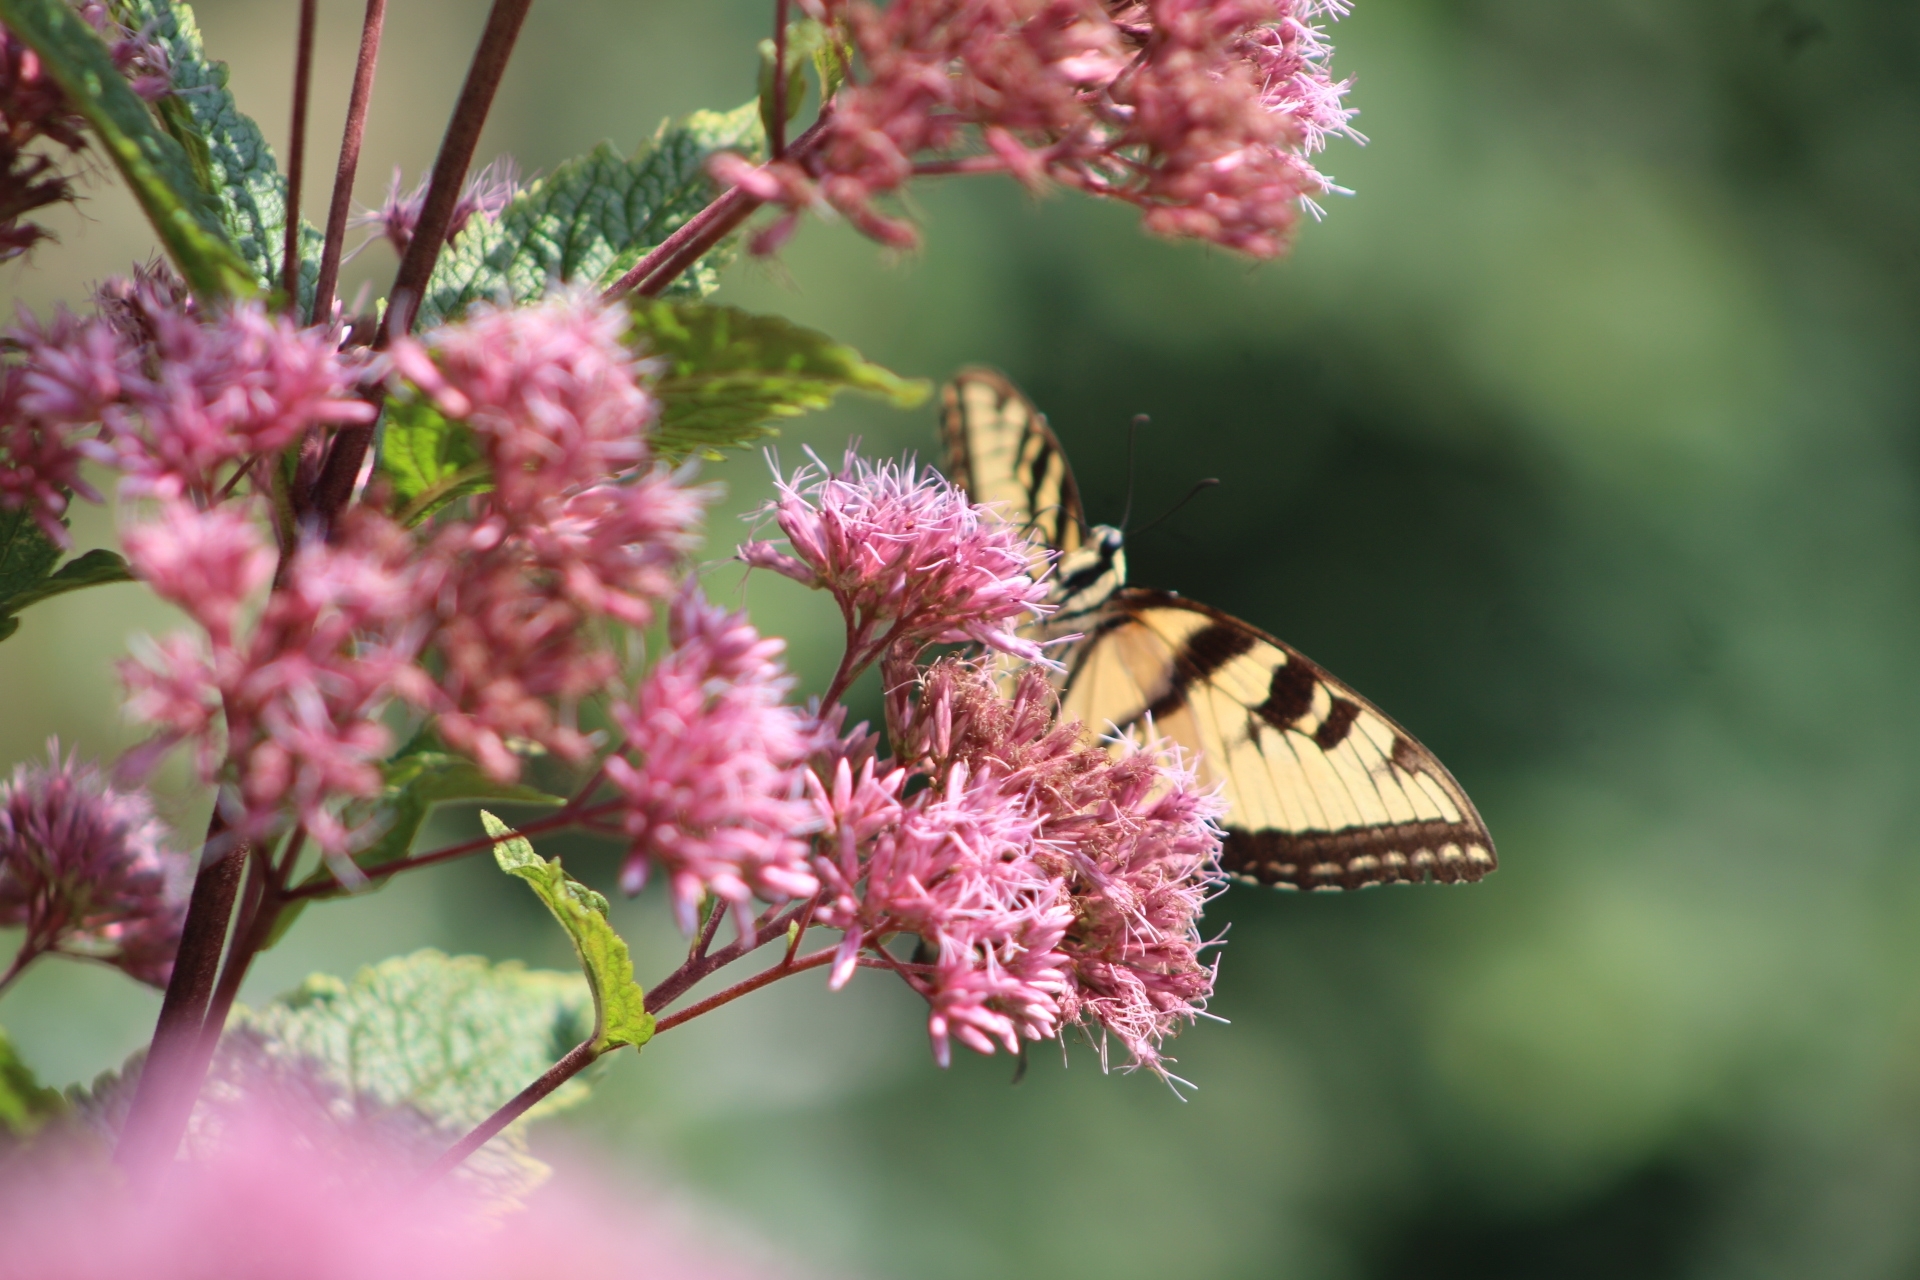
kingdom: Animalia
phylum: Arthropoda
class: Insecta
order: Lepidoptera
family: Papilionidae
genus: Papilio
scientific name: Papilio glaucus
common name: Tiger swallowtail
